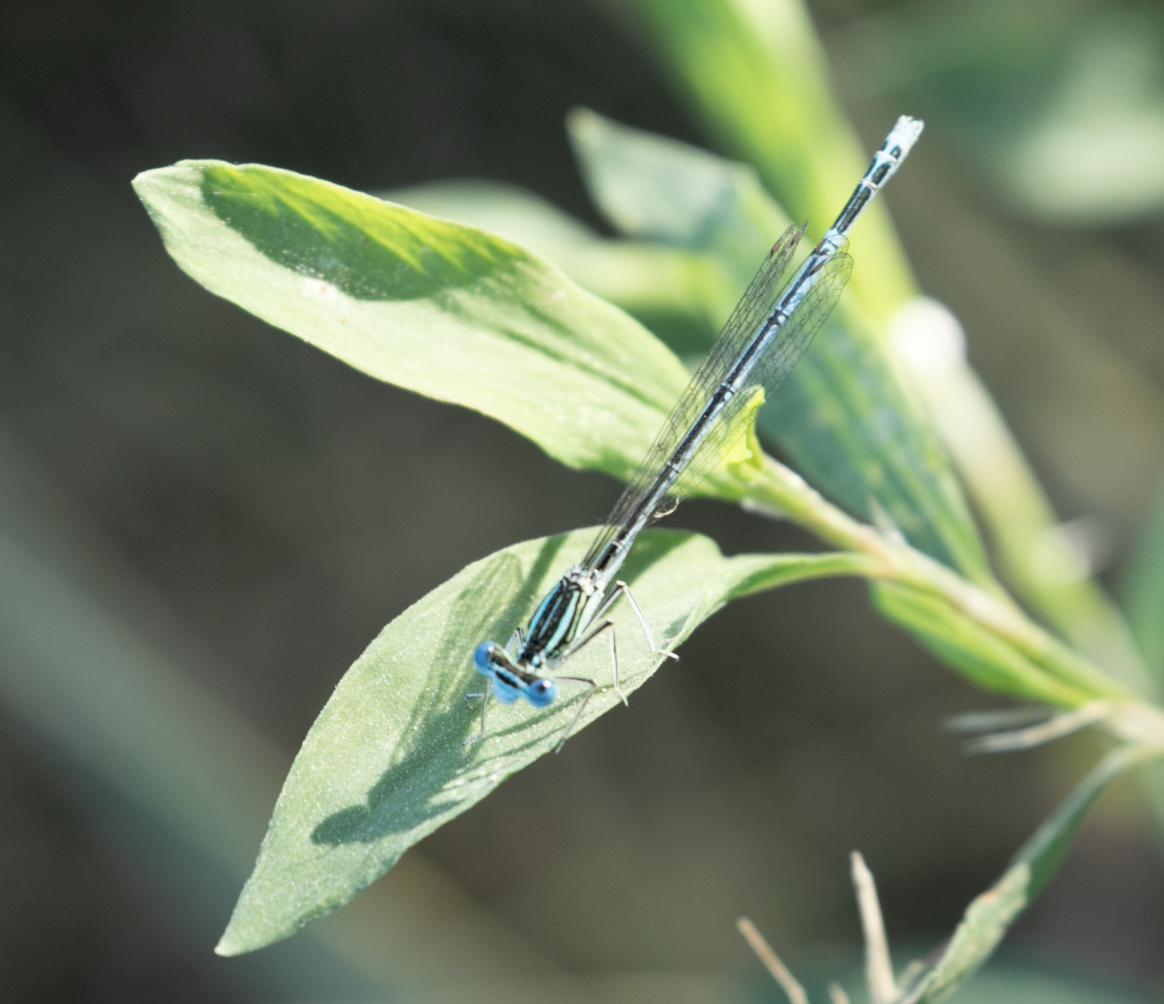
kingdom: Animalia
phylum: Arthropoda
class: Insecta
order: Odonata
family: Platycnemididae
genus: Platycnemis
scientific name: Platycnemis pennipes
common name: White-legged damselfly
